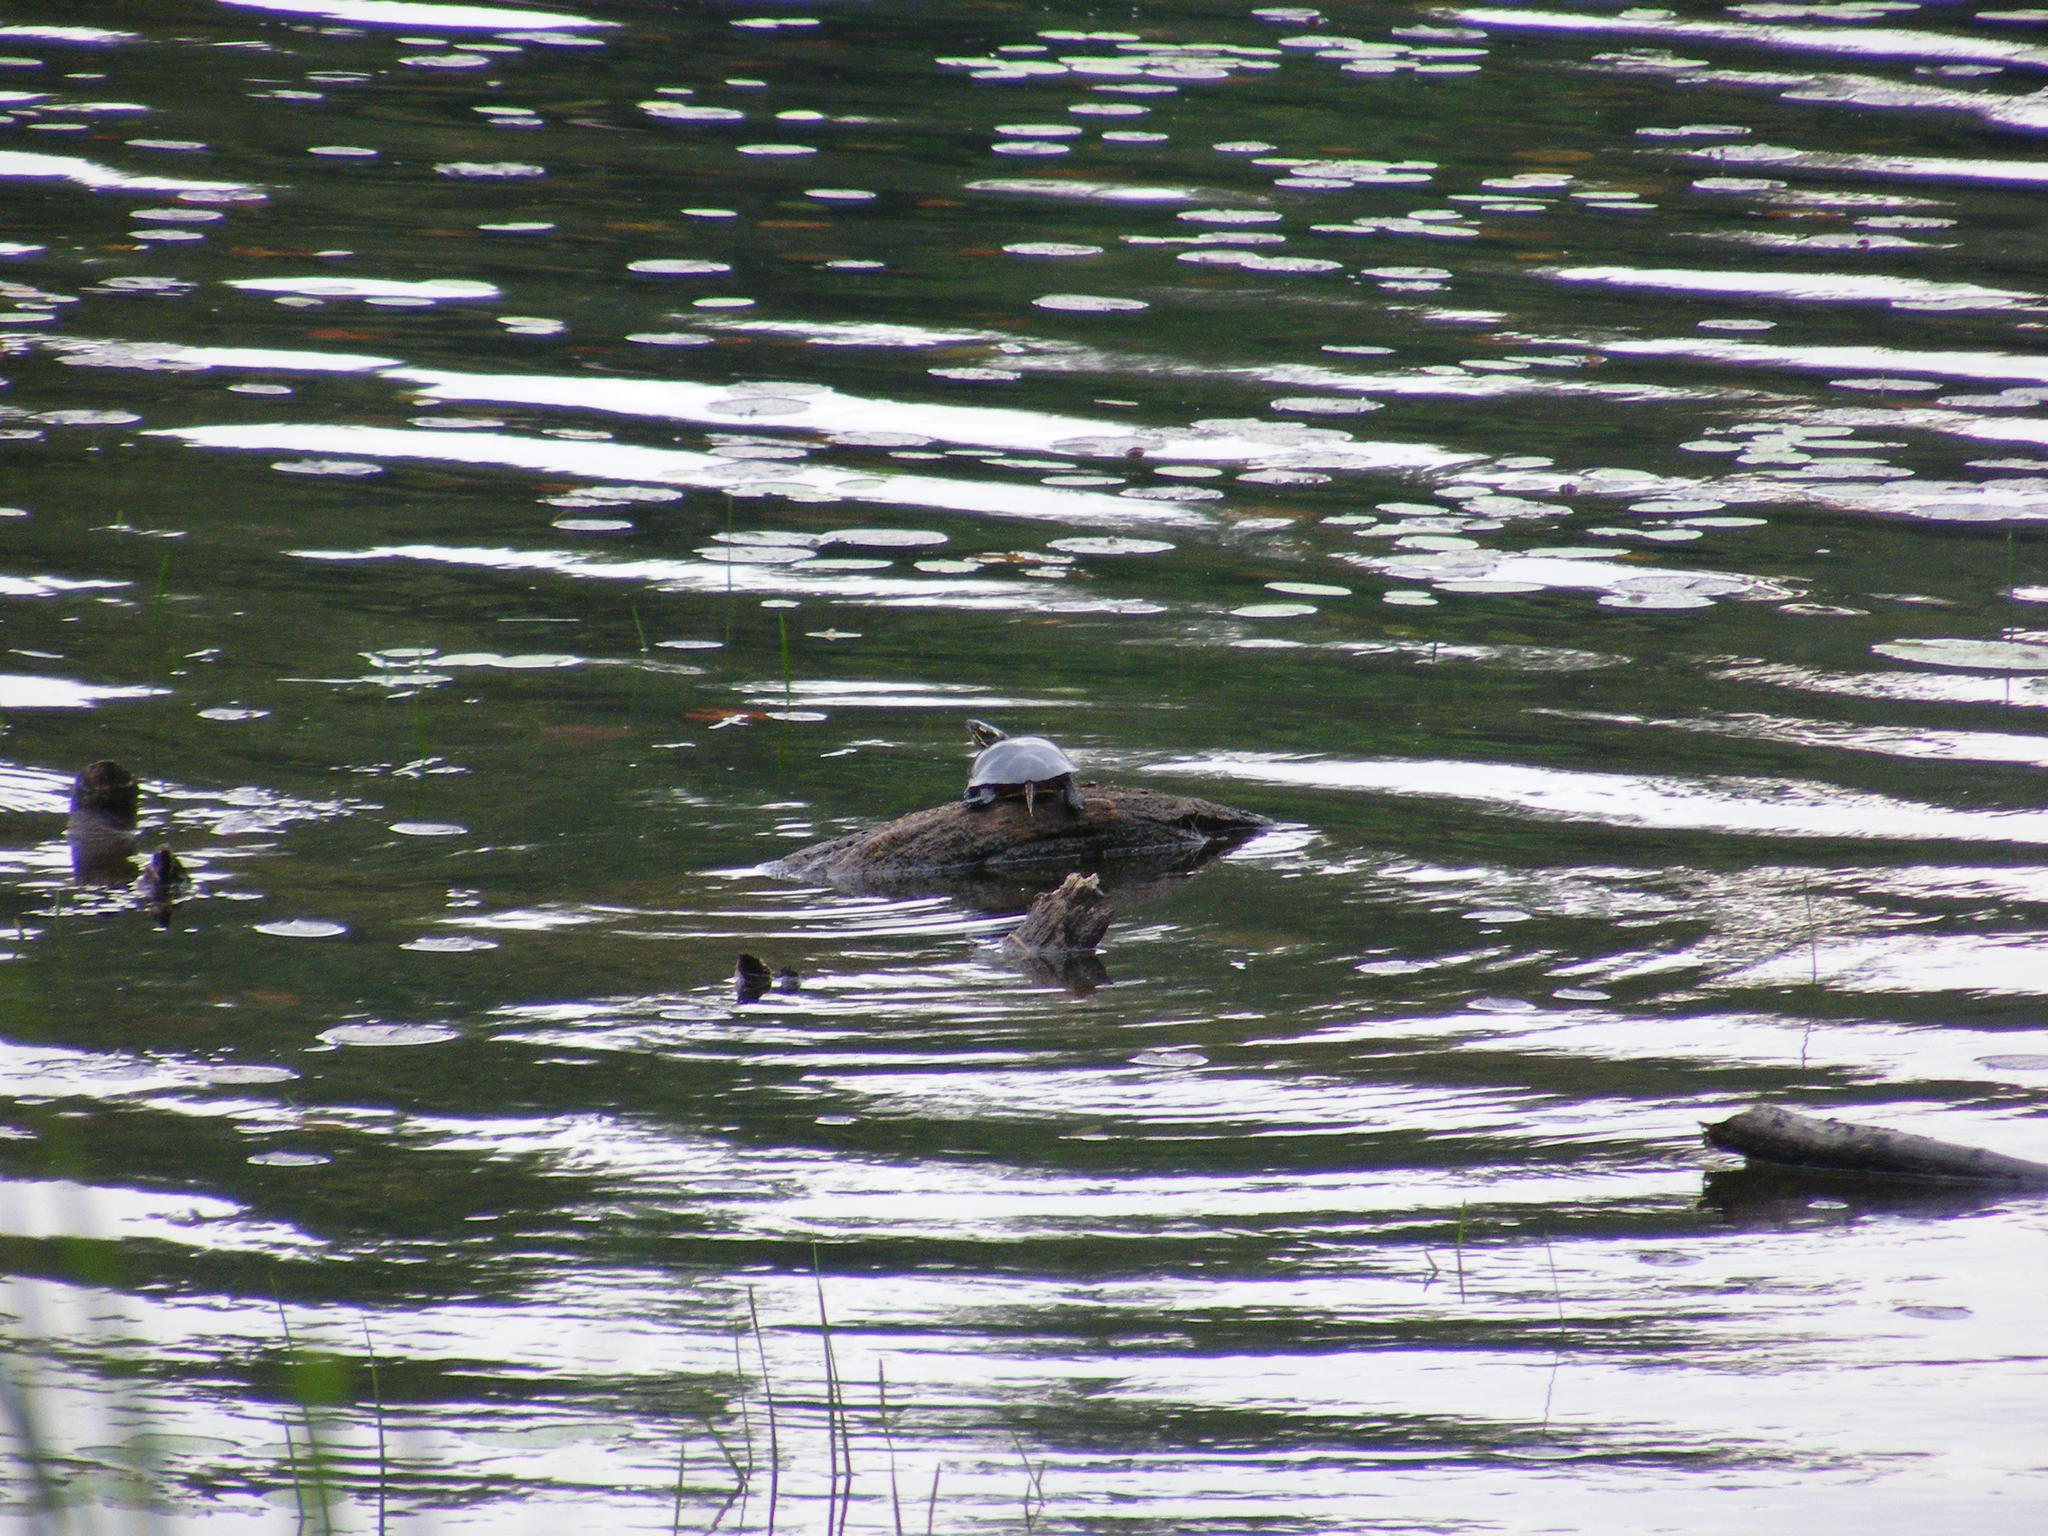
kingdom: Animalia
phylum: Chordata
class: Testudines
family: Emydidae
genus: Chrysemys
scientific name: Chrysemys picta
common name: Painted turtle
